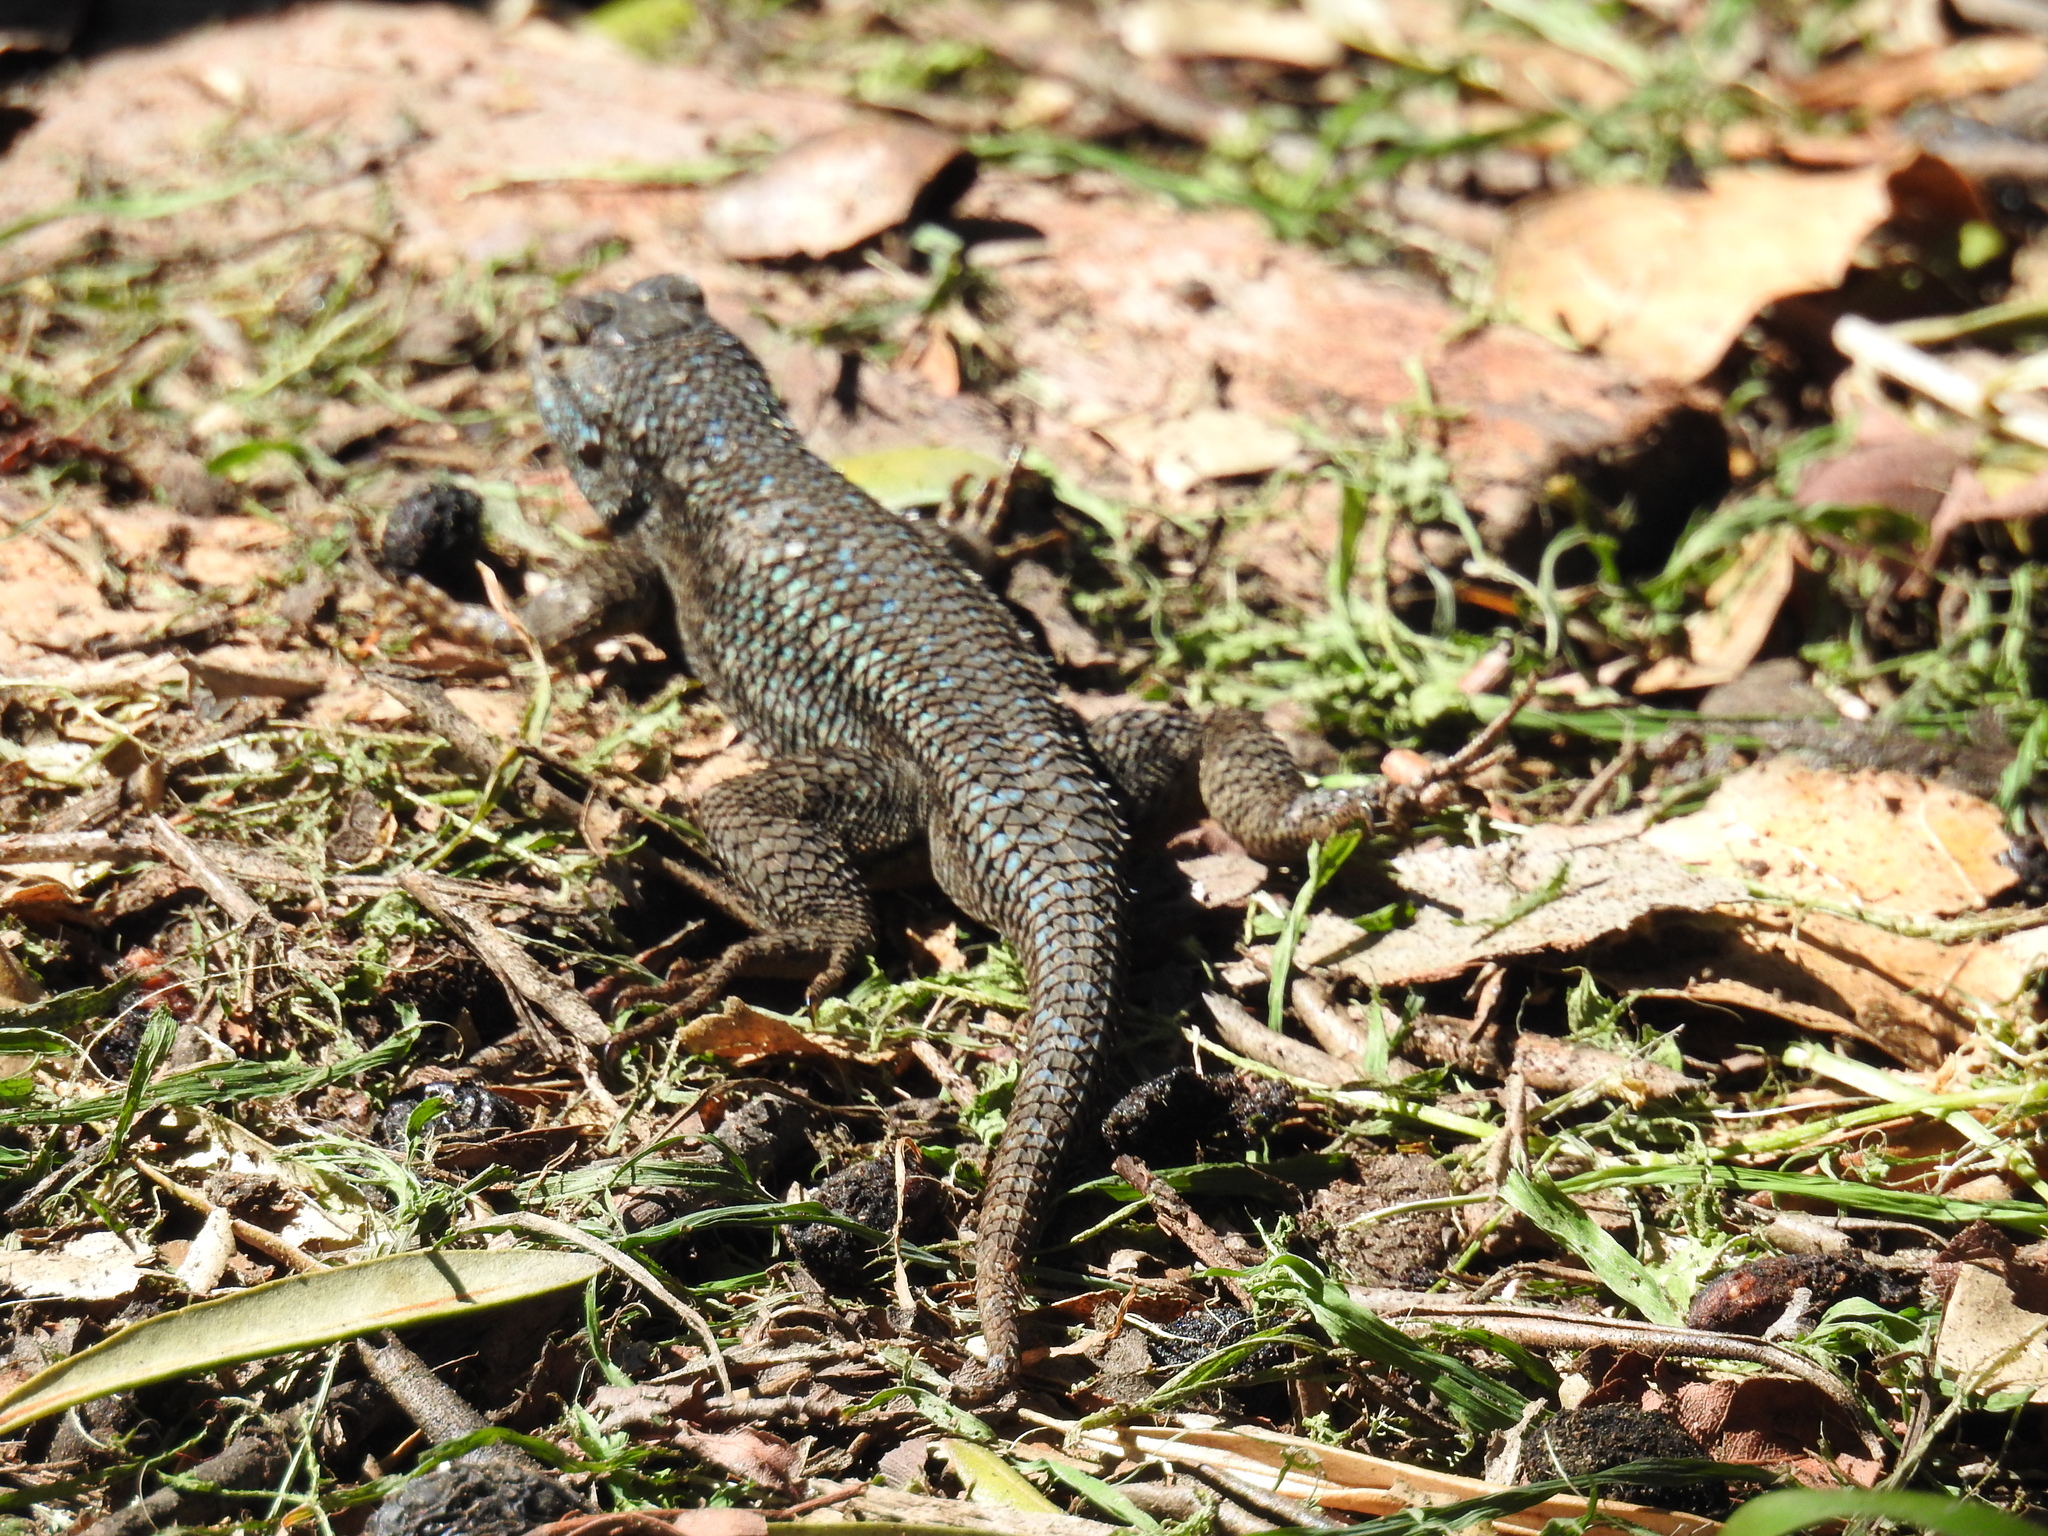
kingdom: Animalia
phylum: Chordata
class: Squamata
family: Phrynosomatidae
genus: Sceloporus
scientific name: Sceloporus occidentalis
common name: Western fence lizard
